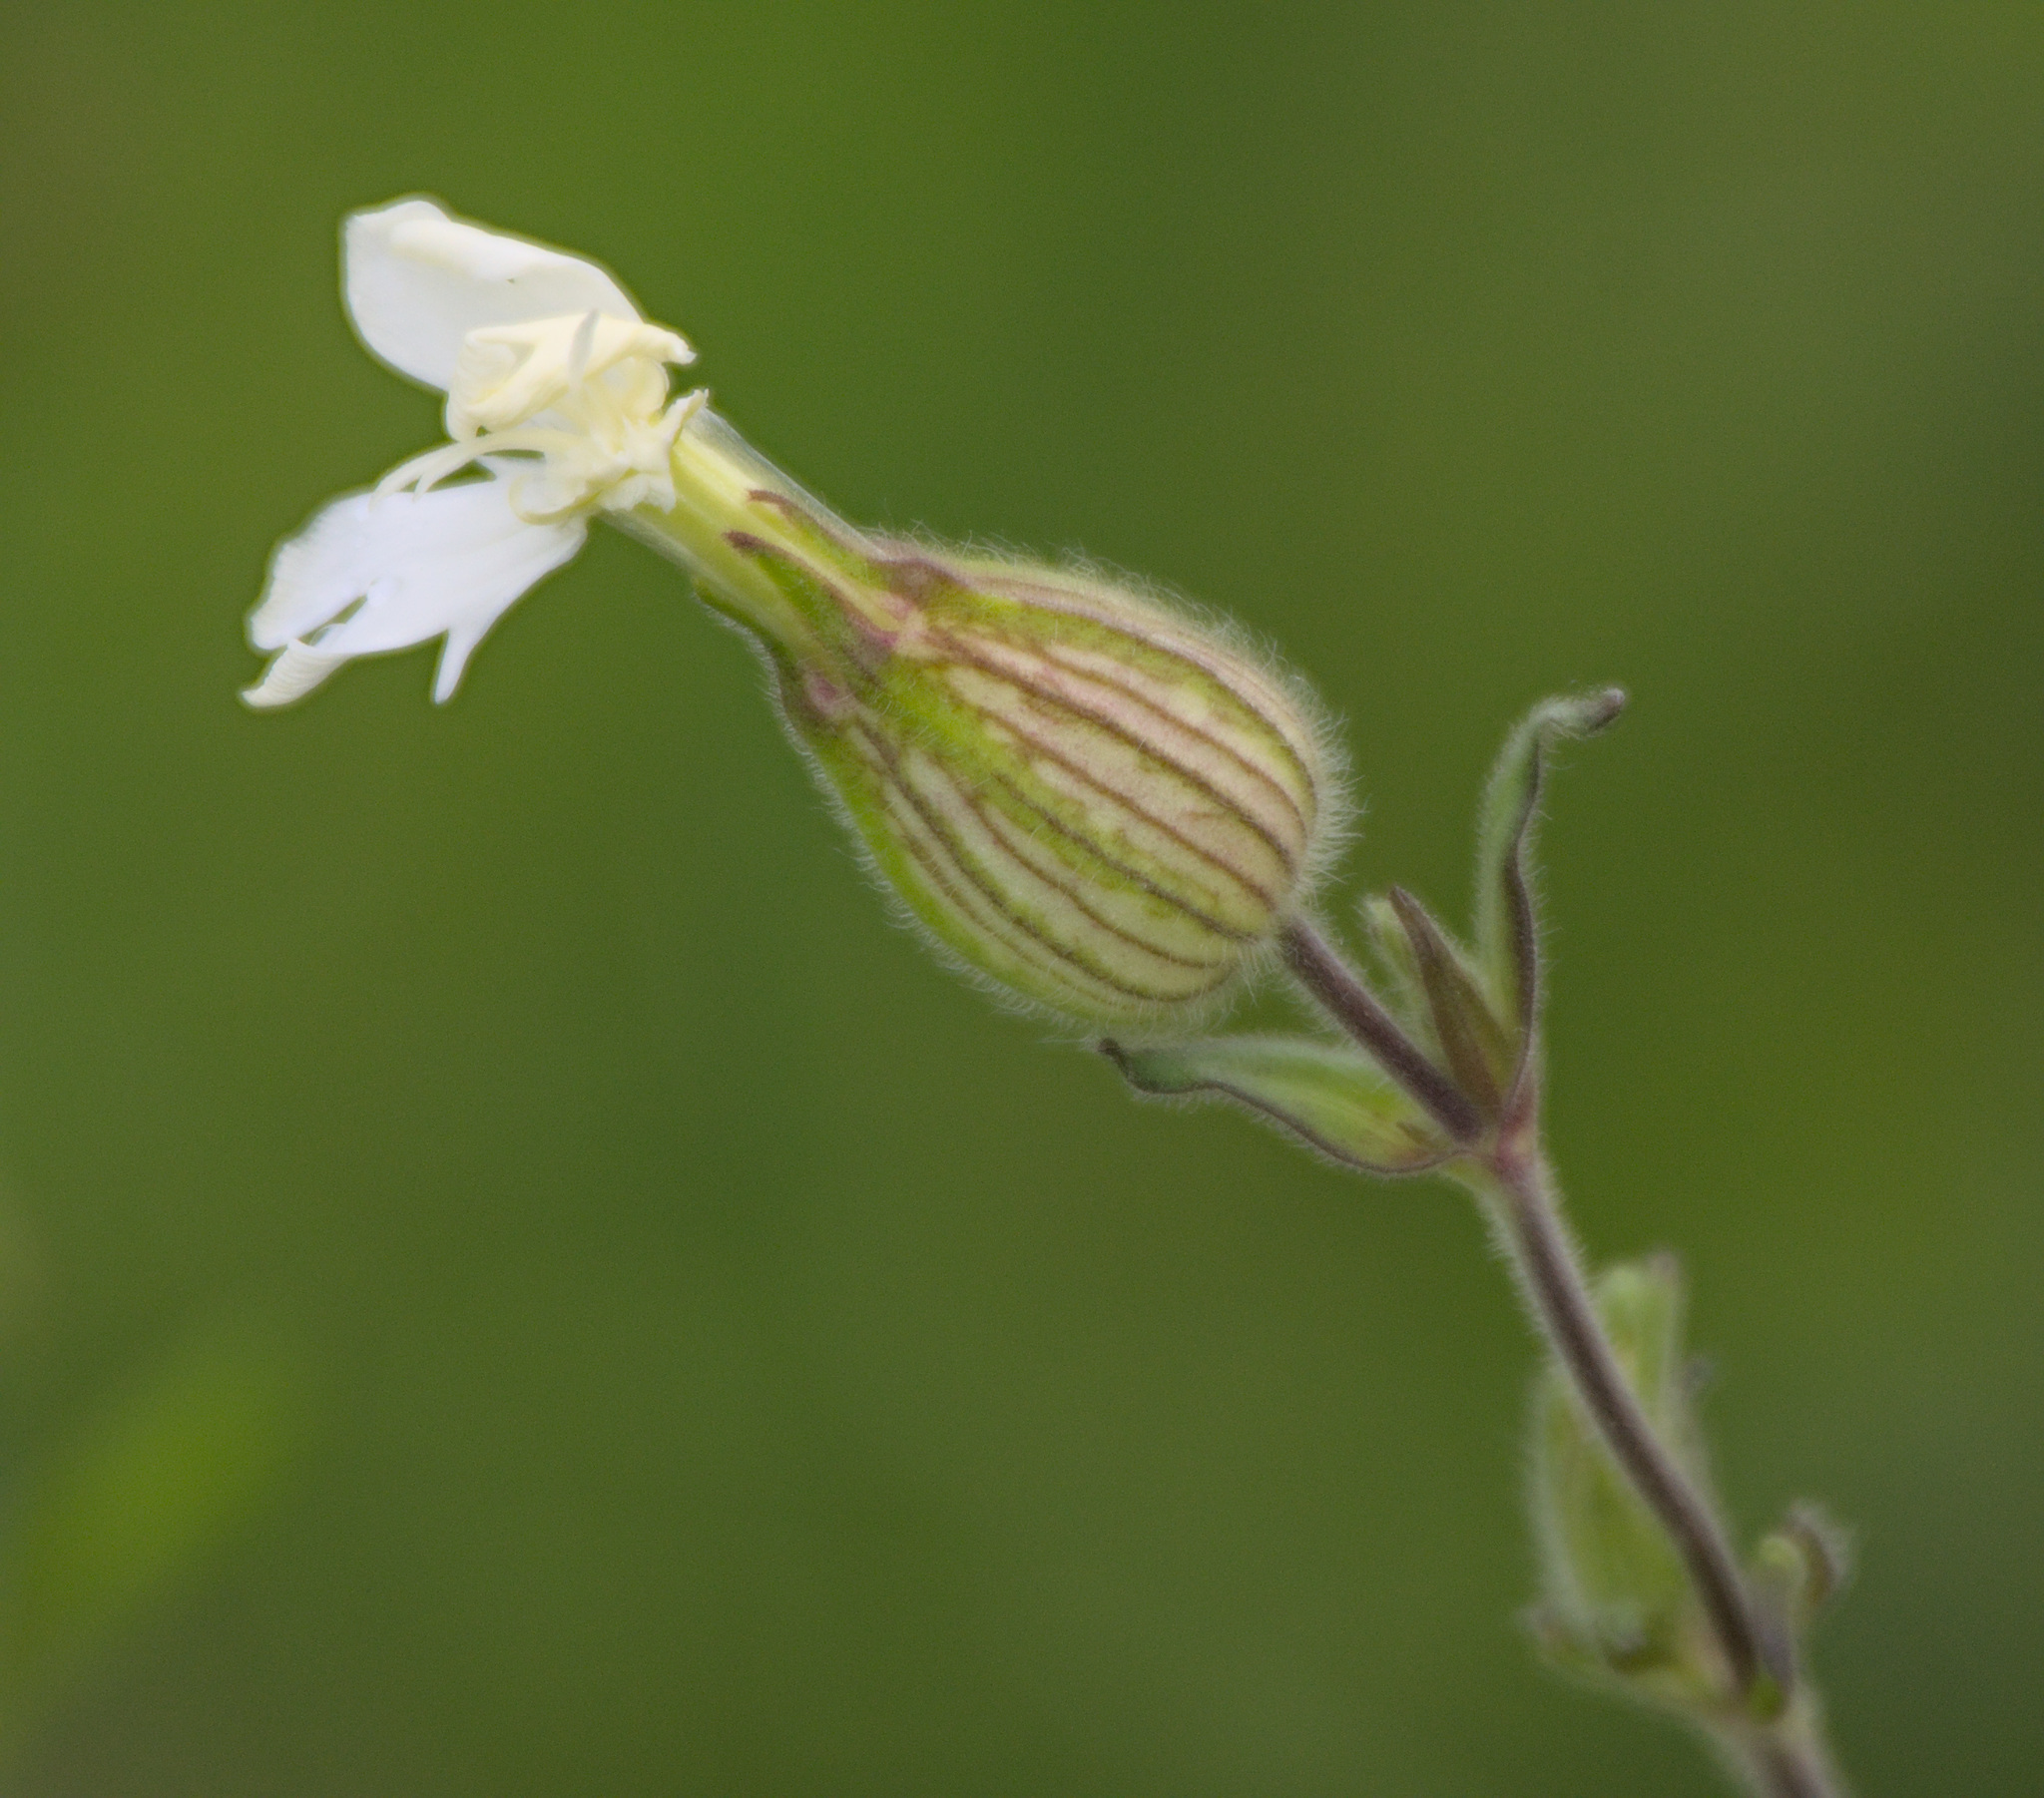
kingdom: Plantae
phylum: Tracheophyta
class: Magnoliopsida
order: Caryophyllales
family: Caryophyllaceae
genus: Silene
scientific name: Silene latifolia
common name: White campion
